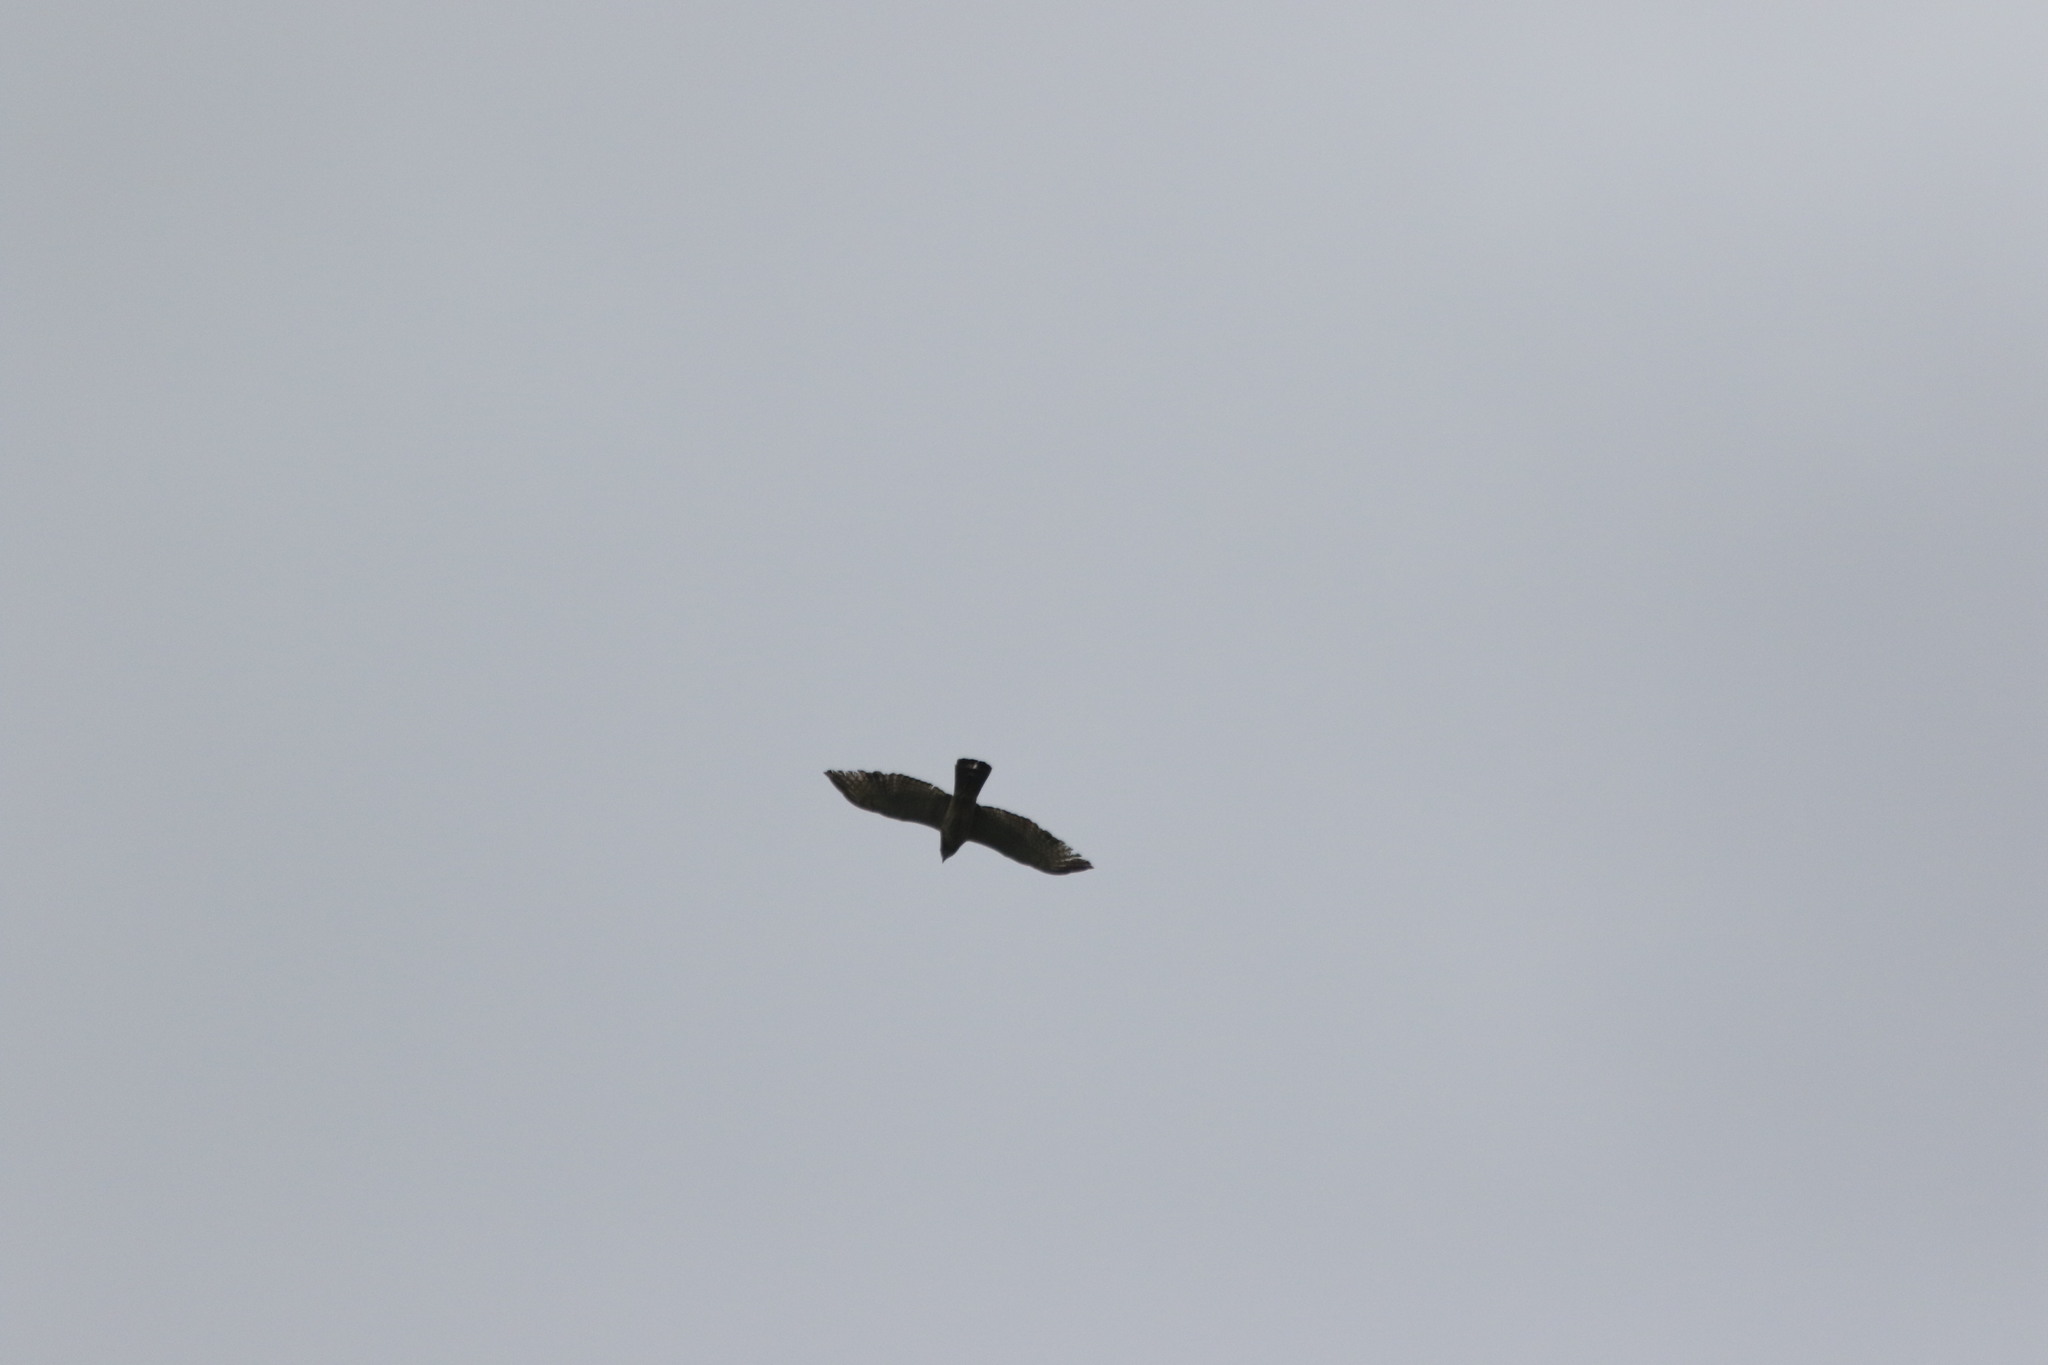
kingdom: Animalia
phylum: Chordata
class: Aves
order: Accipitriformes
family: Accipitridae
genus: Ictinia
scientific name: Ictinia mississippiensis
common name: Mississippi kite
